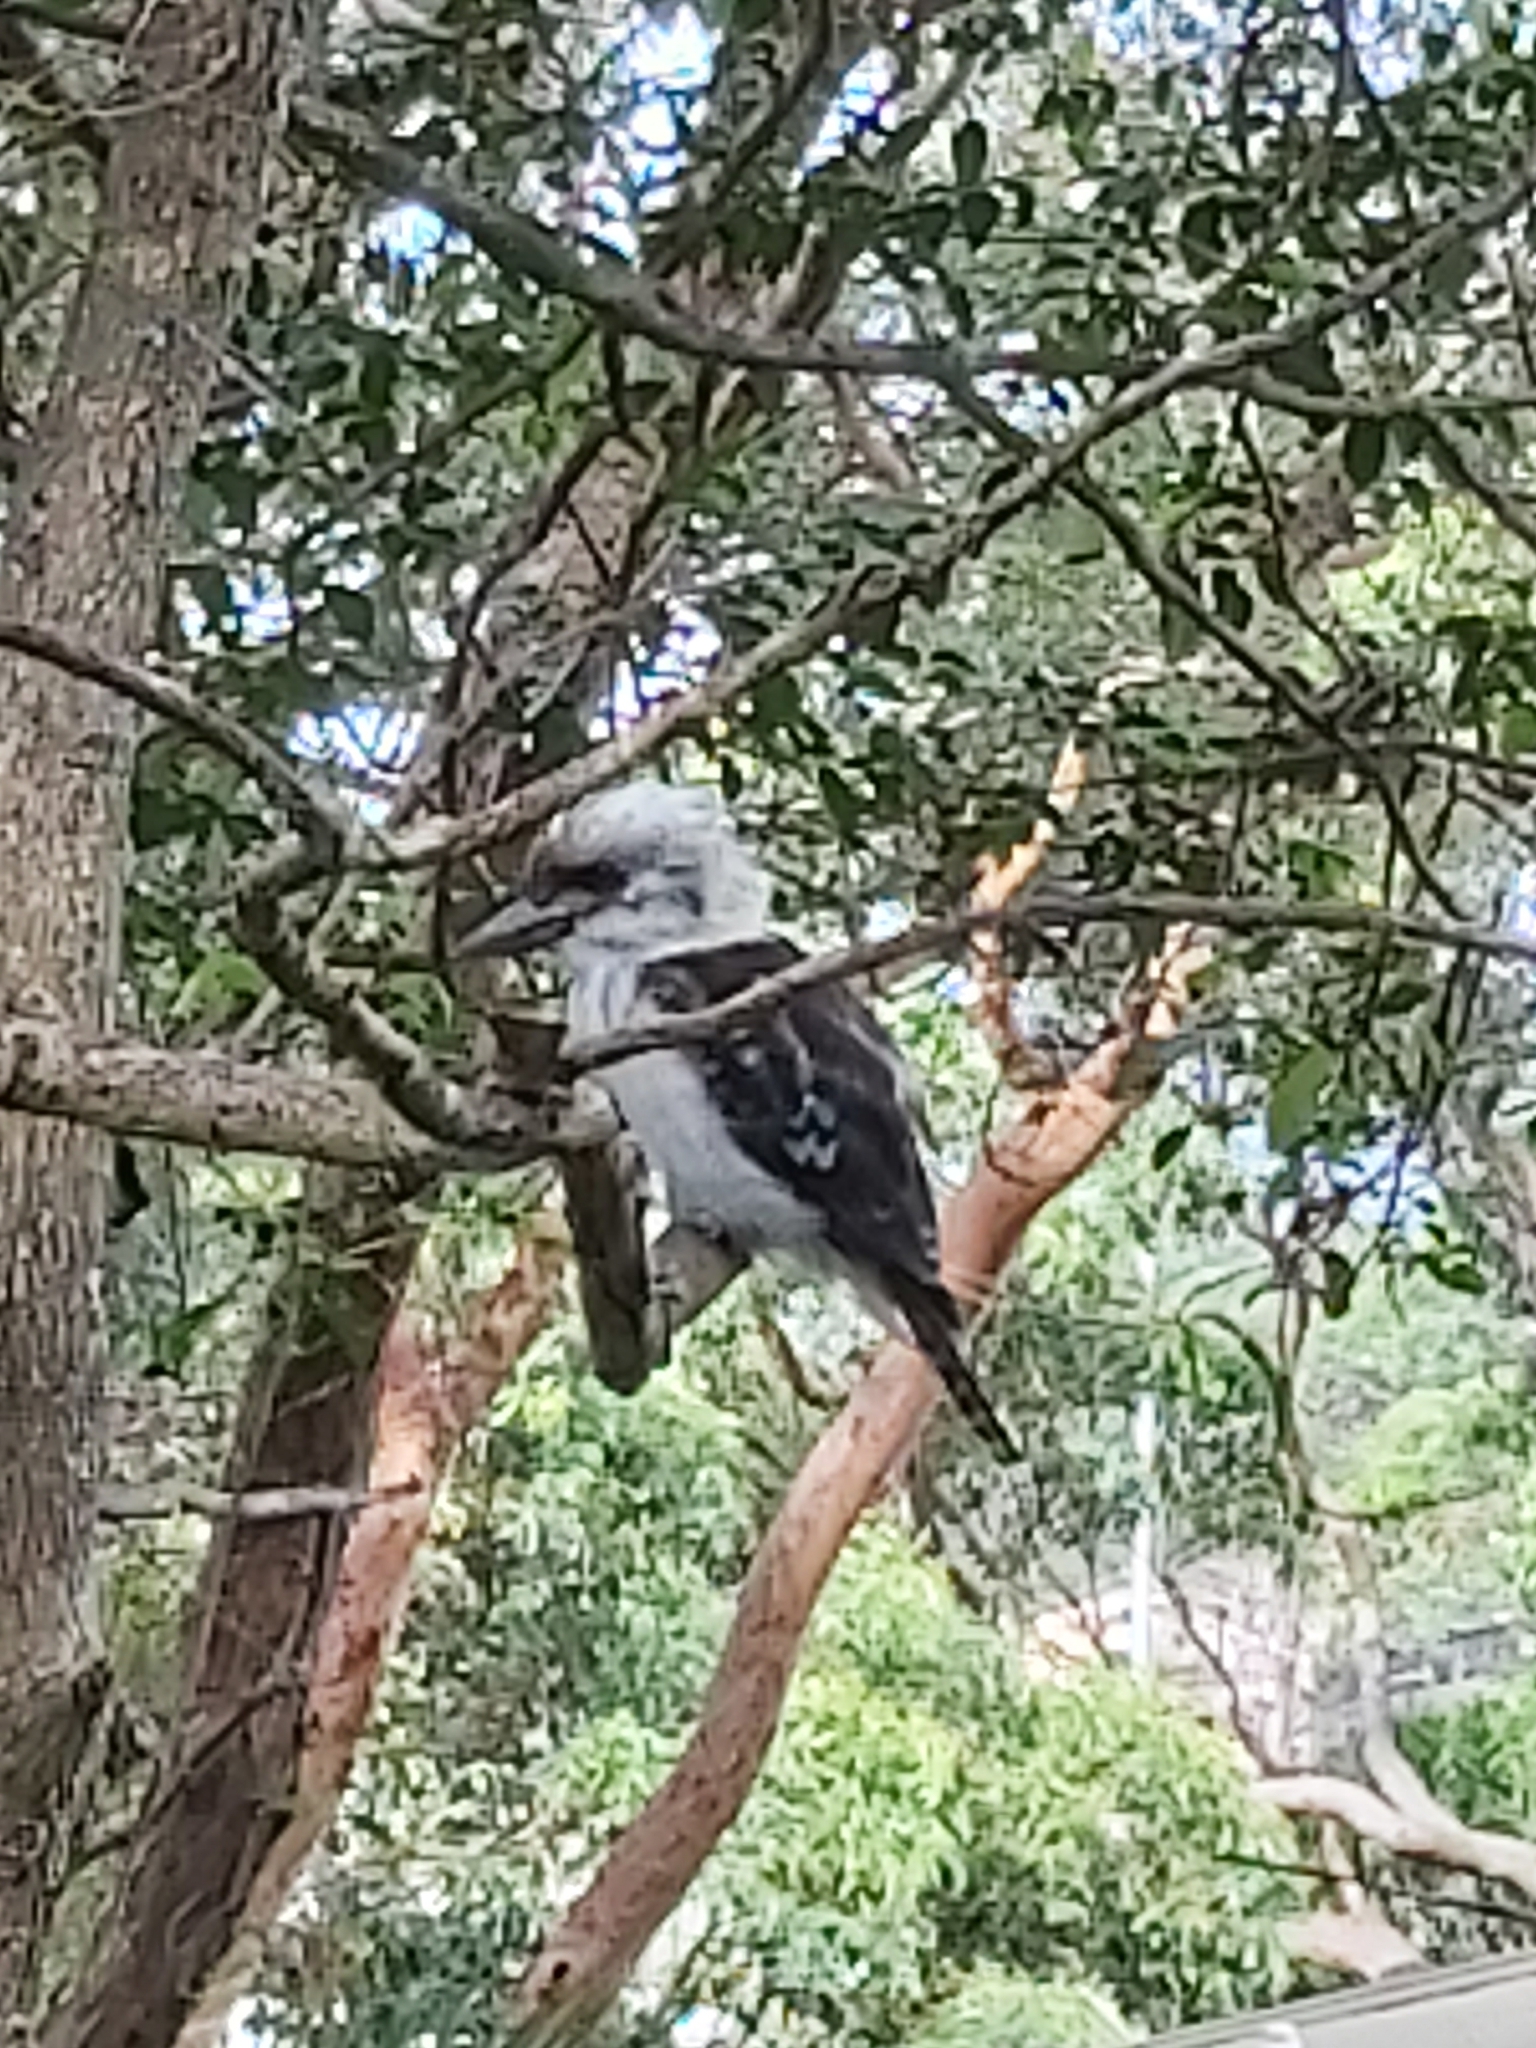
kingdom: Animalia
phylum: Chordata
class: Aves
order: Coraciiformes
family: Alcedinidae
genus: Dacelo
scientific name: Dacelo novaeguineae
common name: Laughing kookaburra
